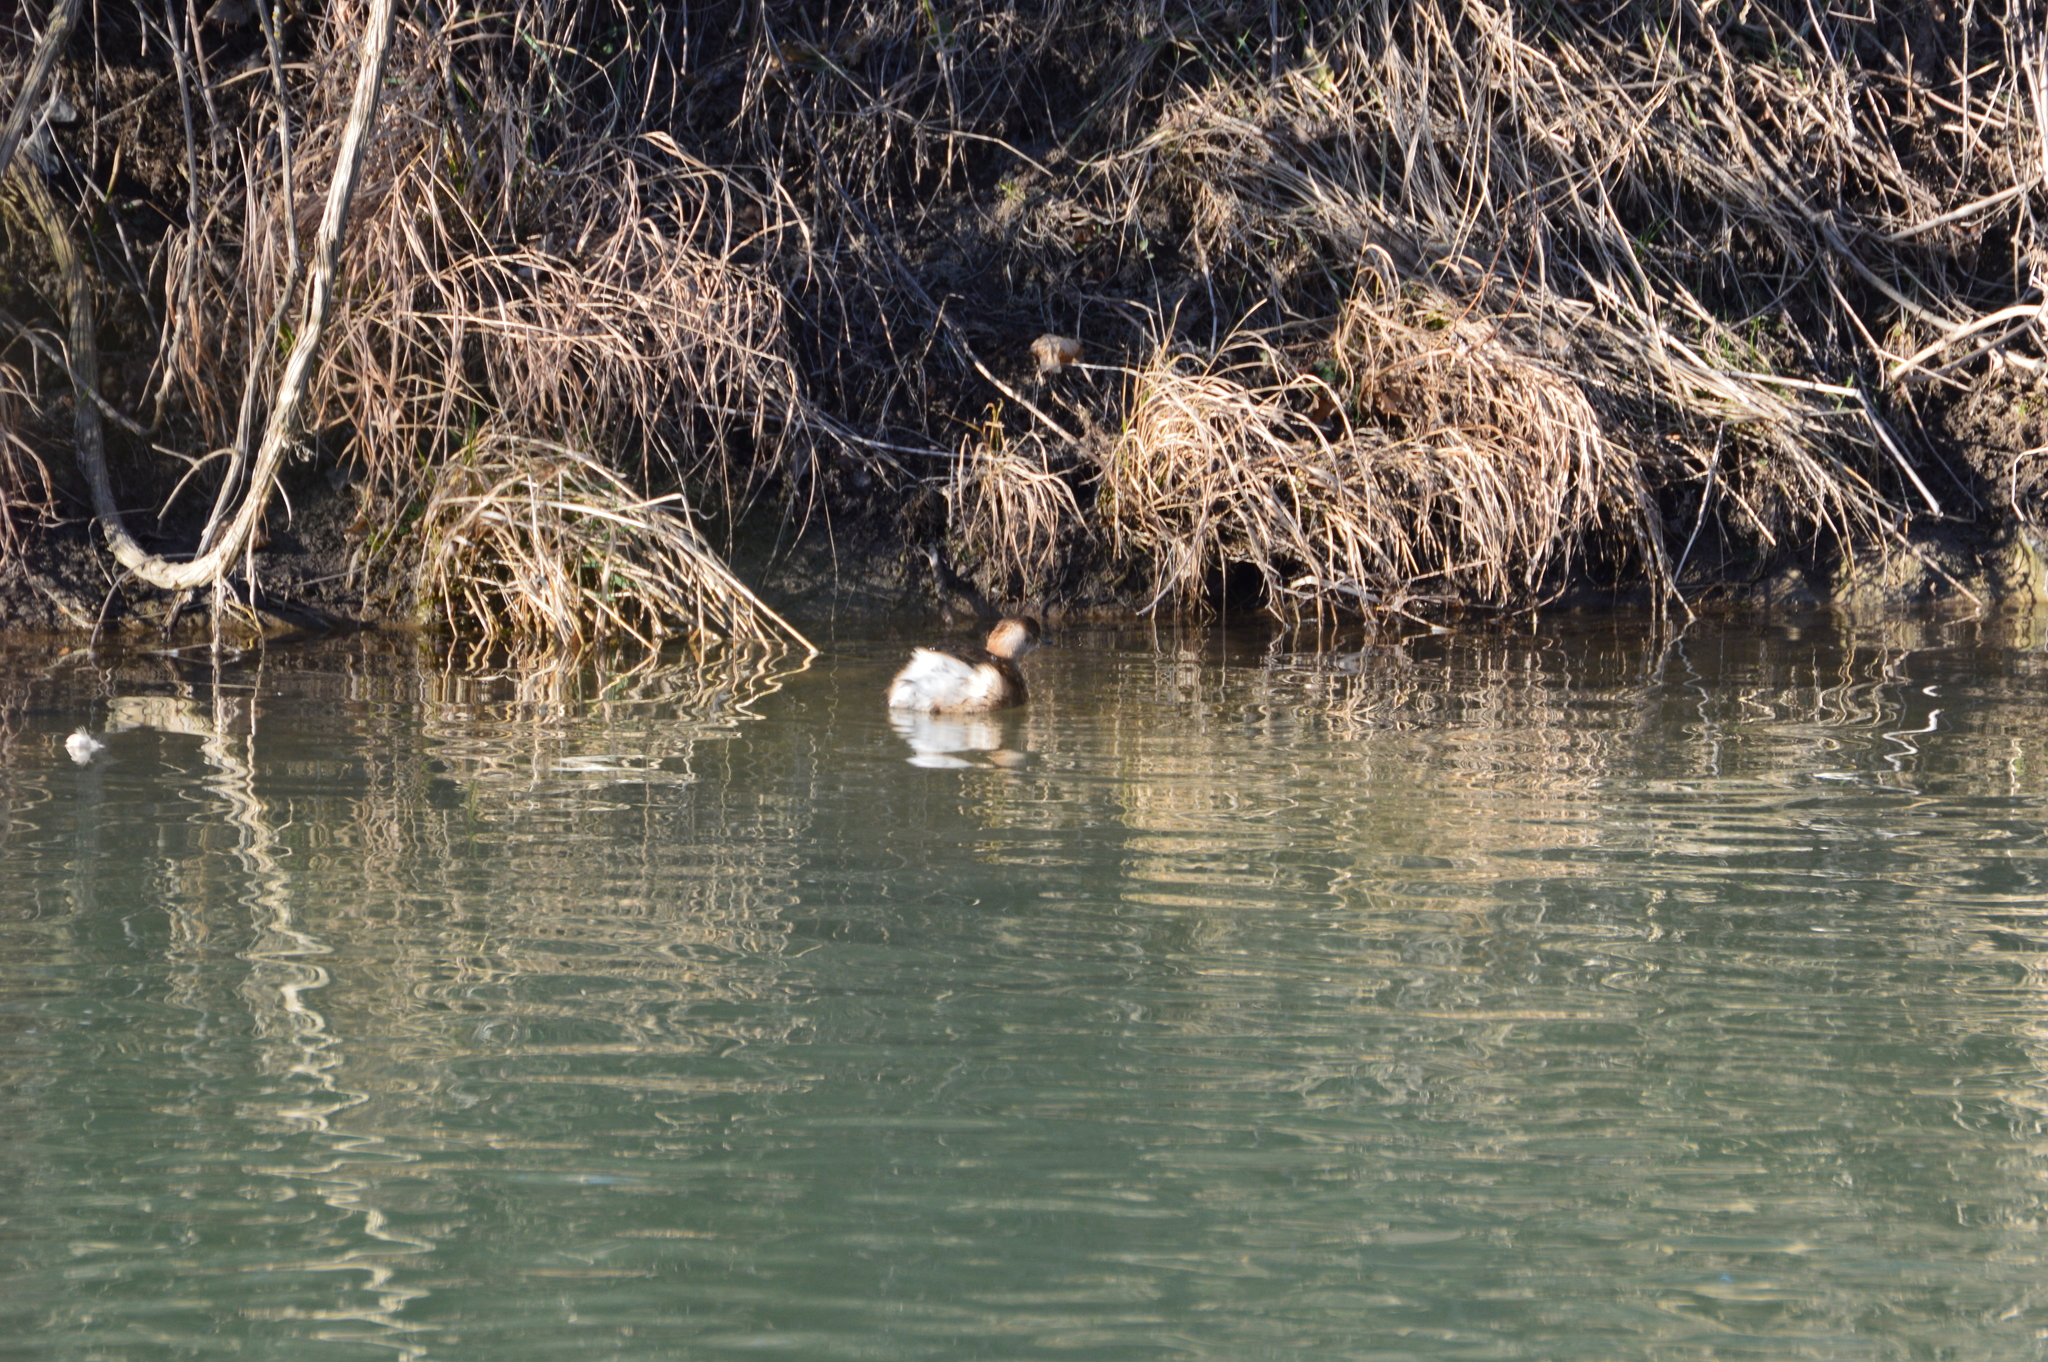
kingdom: Animalia
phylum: Chordata
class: Aves
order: Podicipediformes
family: Podicipedidae
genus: Tachybaptus
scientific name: Tachybaptus ruficollis
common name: Little grebe
